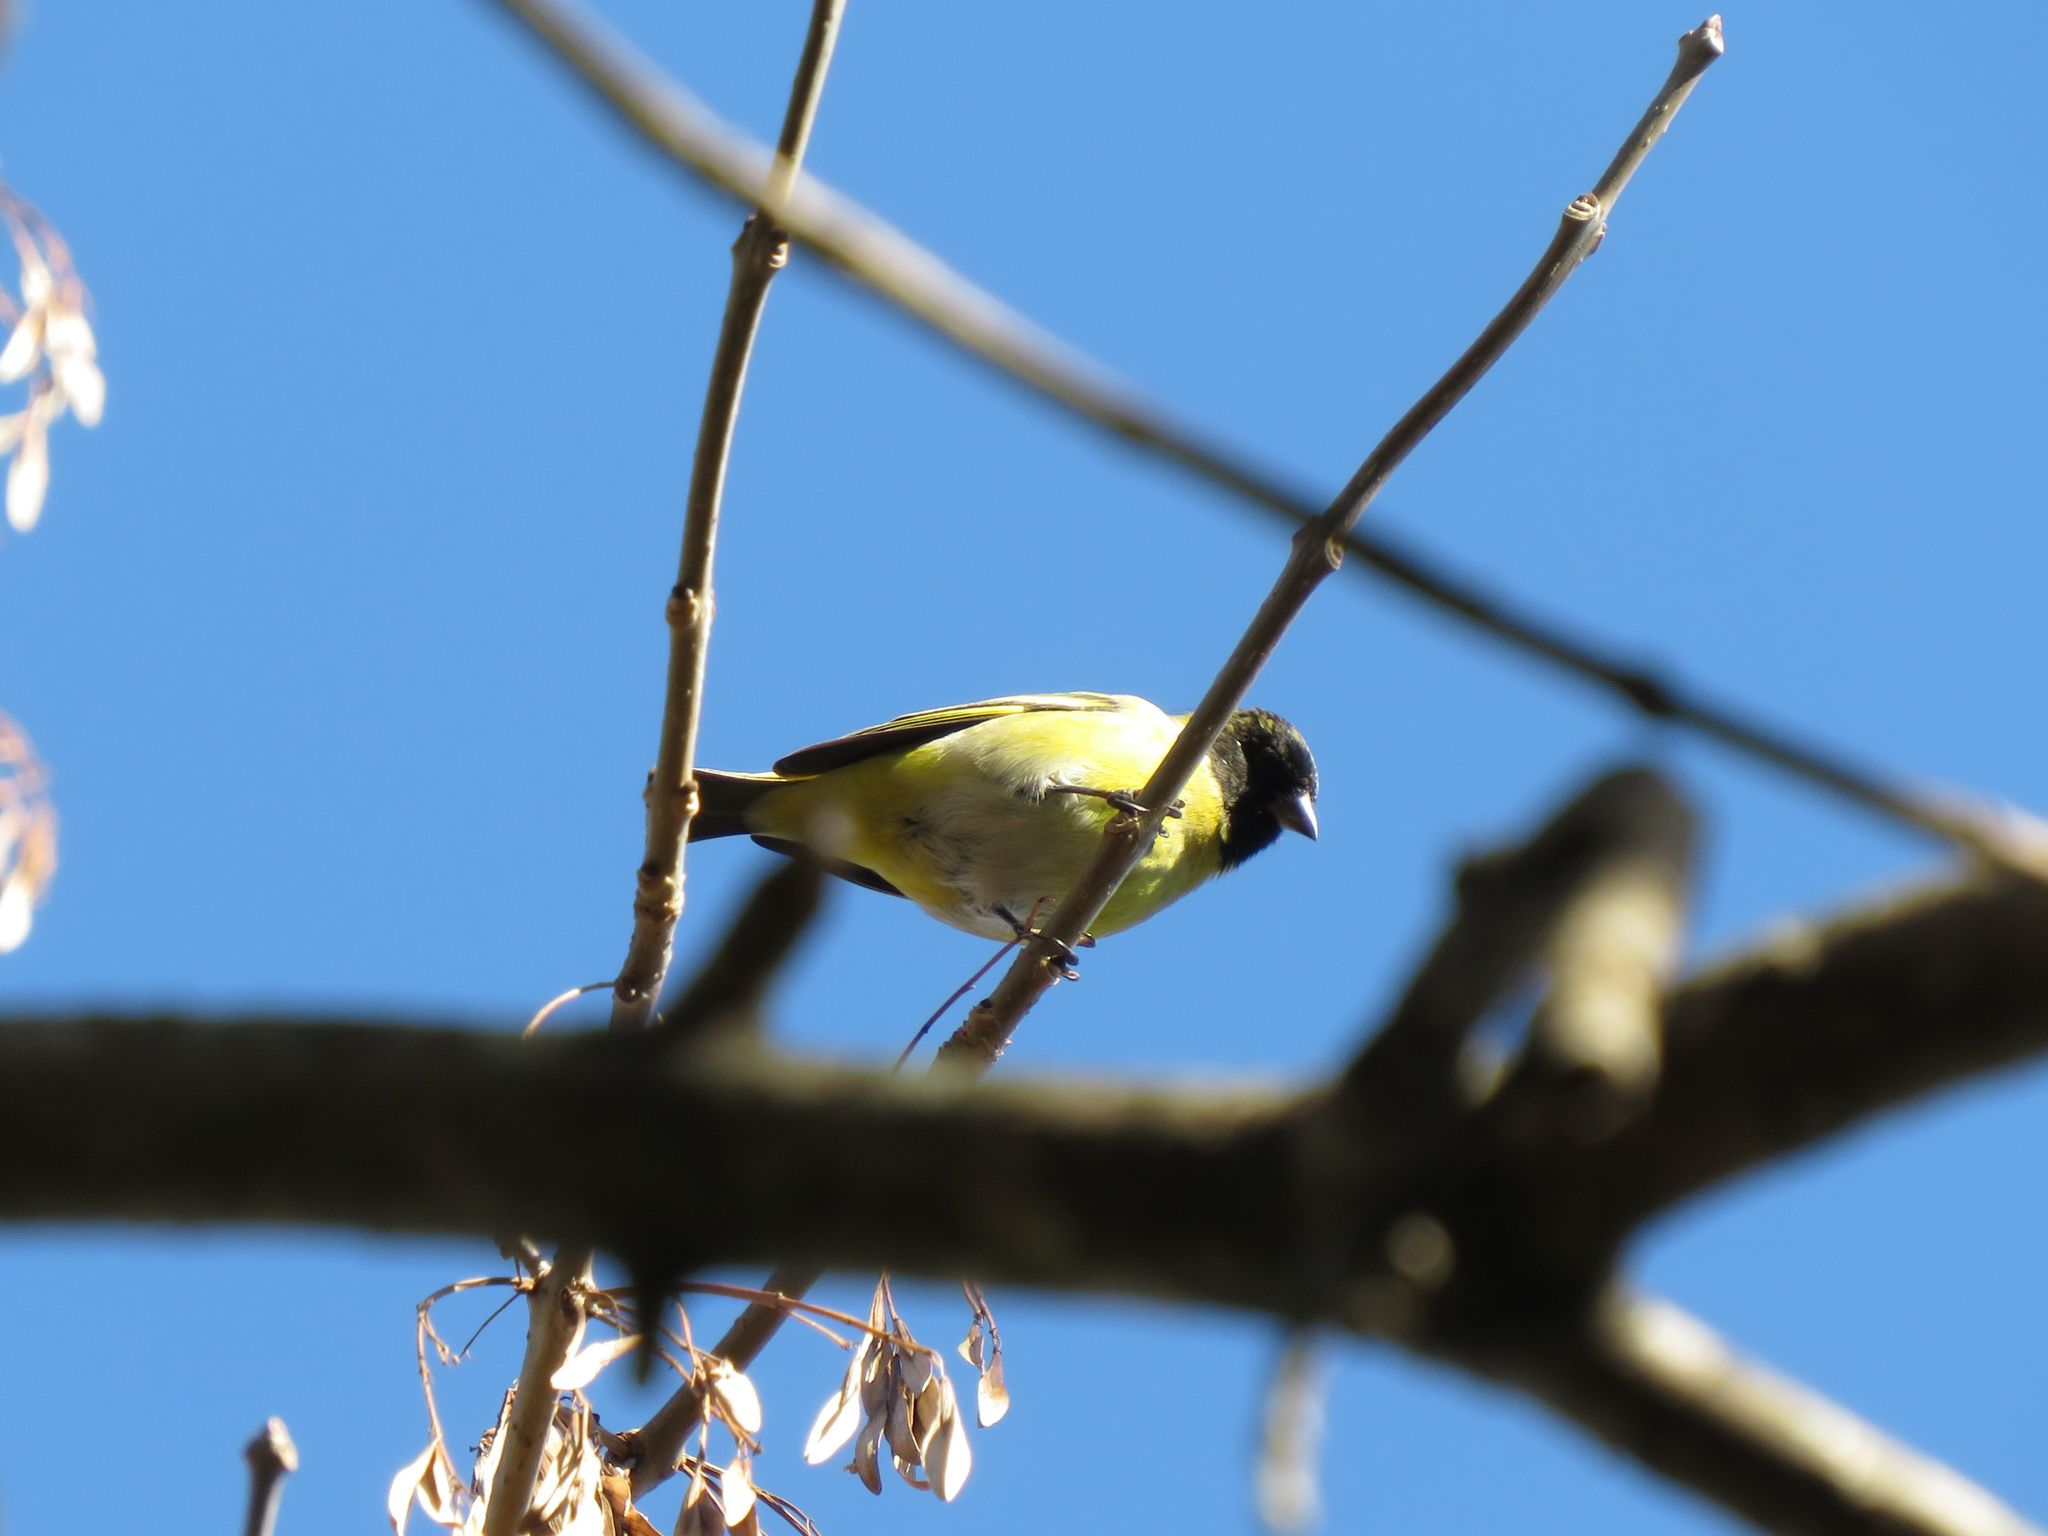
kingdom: Animalia
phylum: Chordata
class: Aves
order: Passeriformes
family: Fringillidae
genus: Spinus
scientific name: Spinus magellanicus
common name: Hooded siskin
